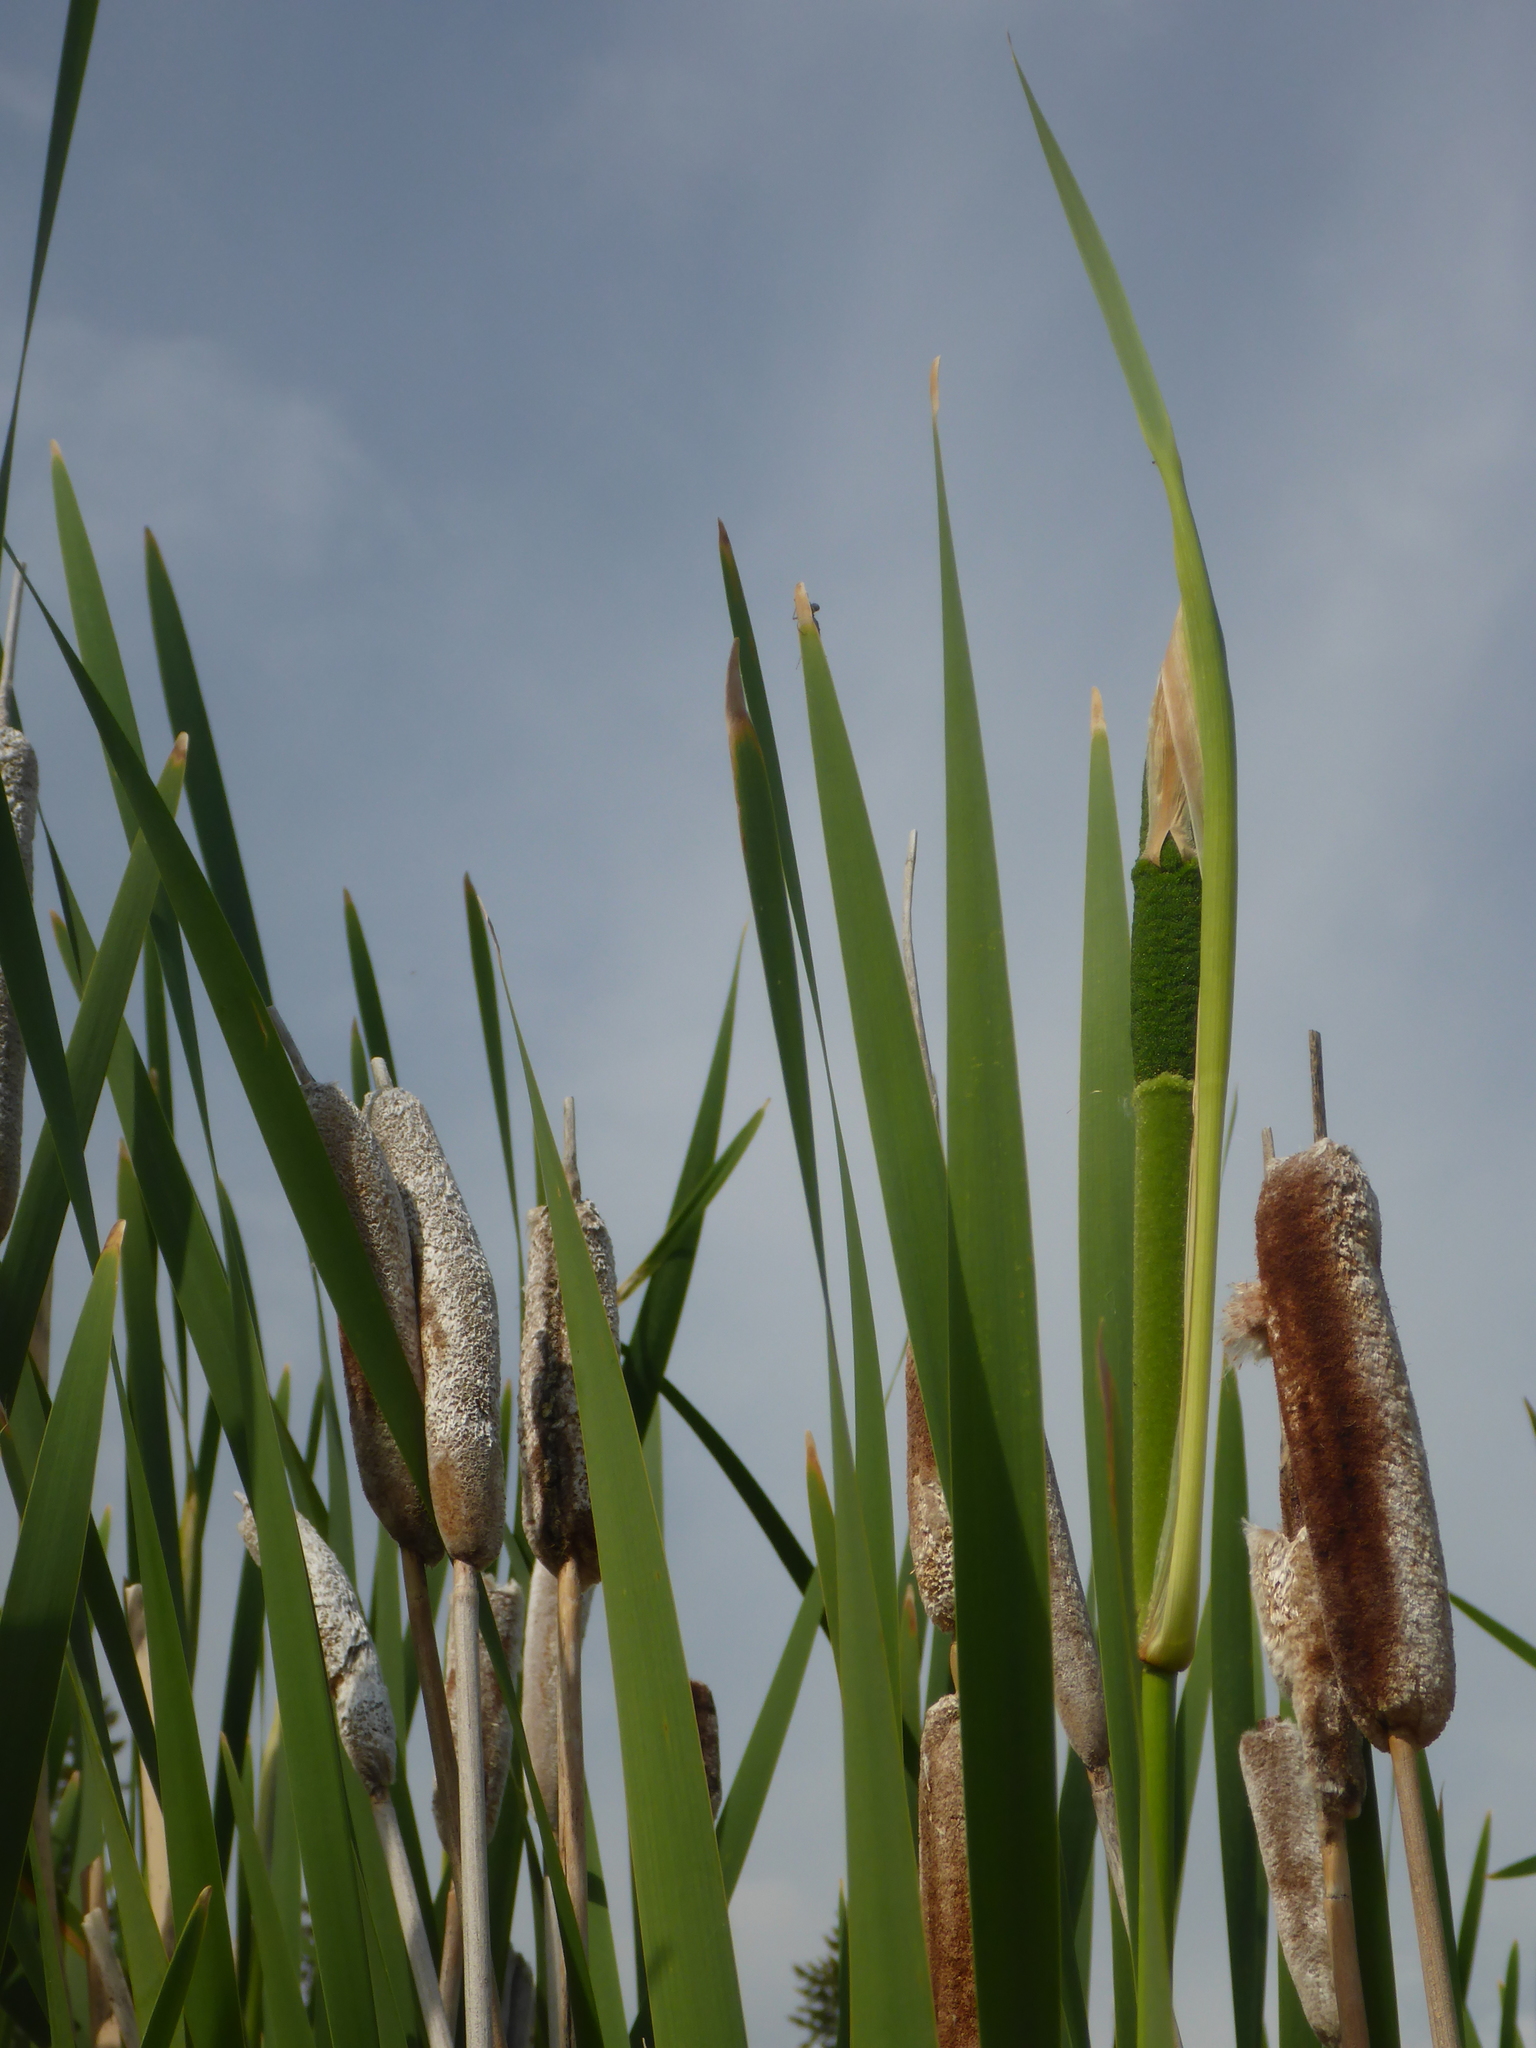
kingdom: Plantae
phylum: Tracheophyta
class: Liliopsida
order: Poales
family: Typhaceae
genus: Typha
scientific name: Typha latifolia
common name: Broadleaf cattail
